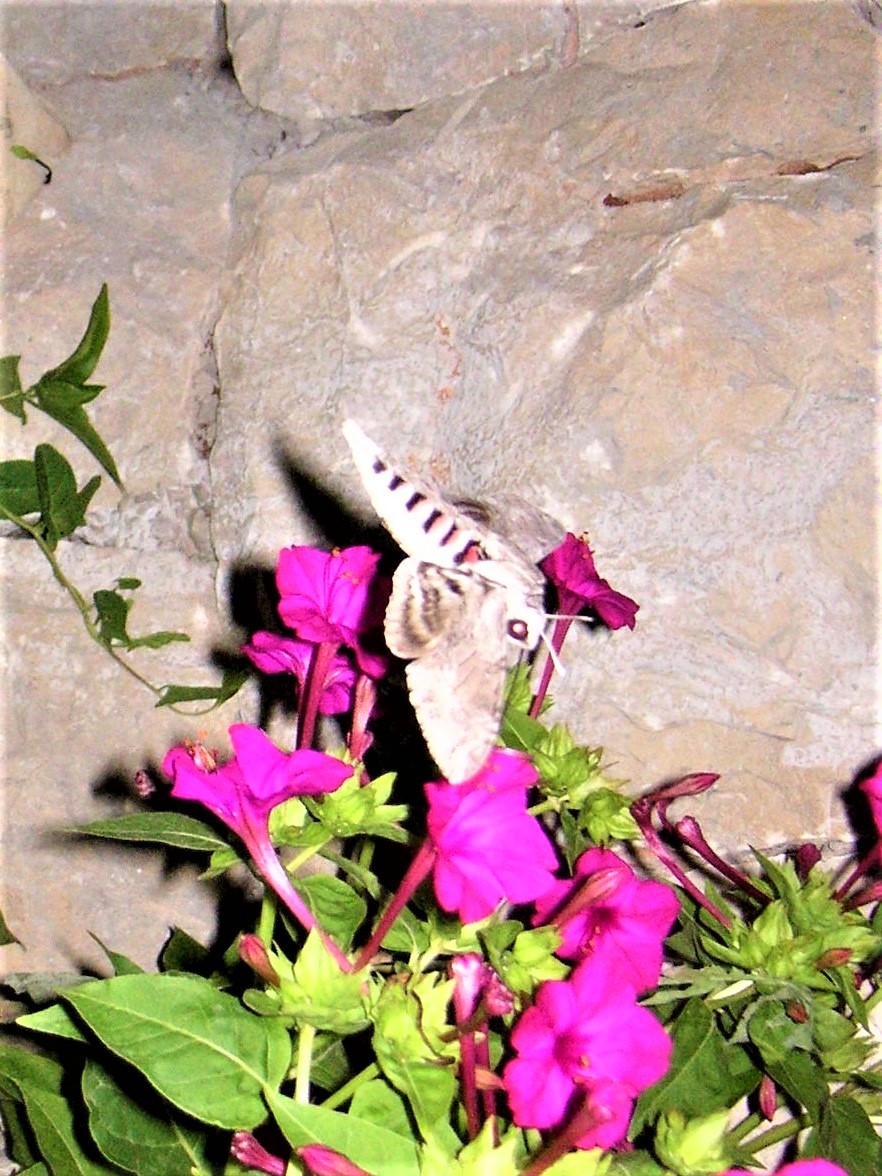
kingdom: Animalia
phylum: Arthropoda
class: Insecta
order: Lepidoptera
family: Sphingidae
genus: Agrius
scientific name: Agrius convolvuli
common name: Convolvulus hawkmoth
